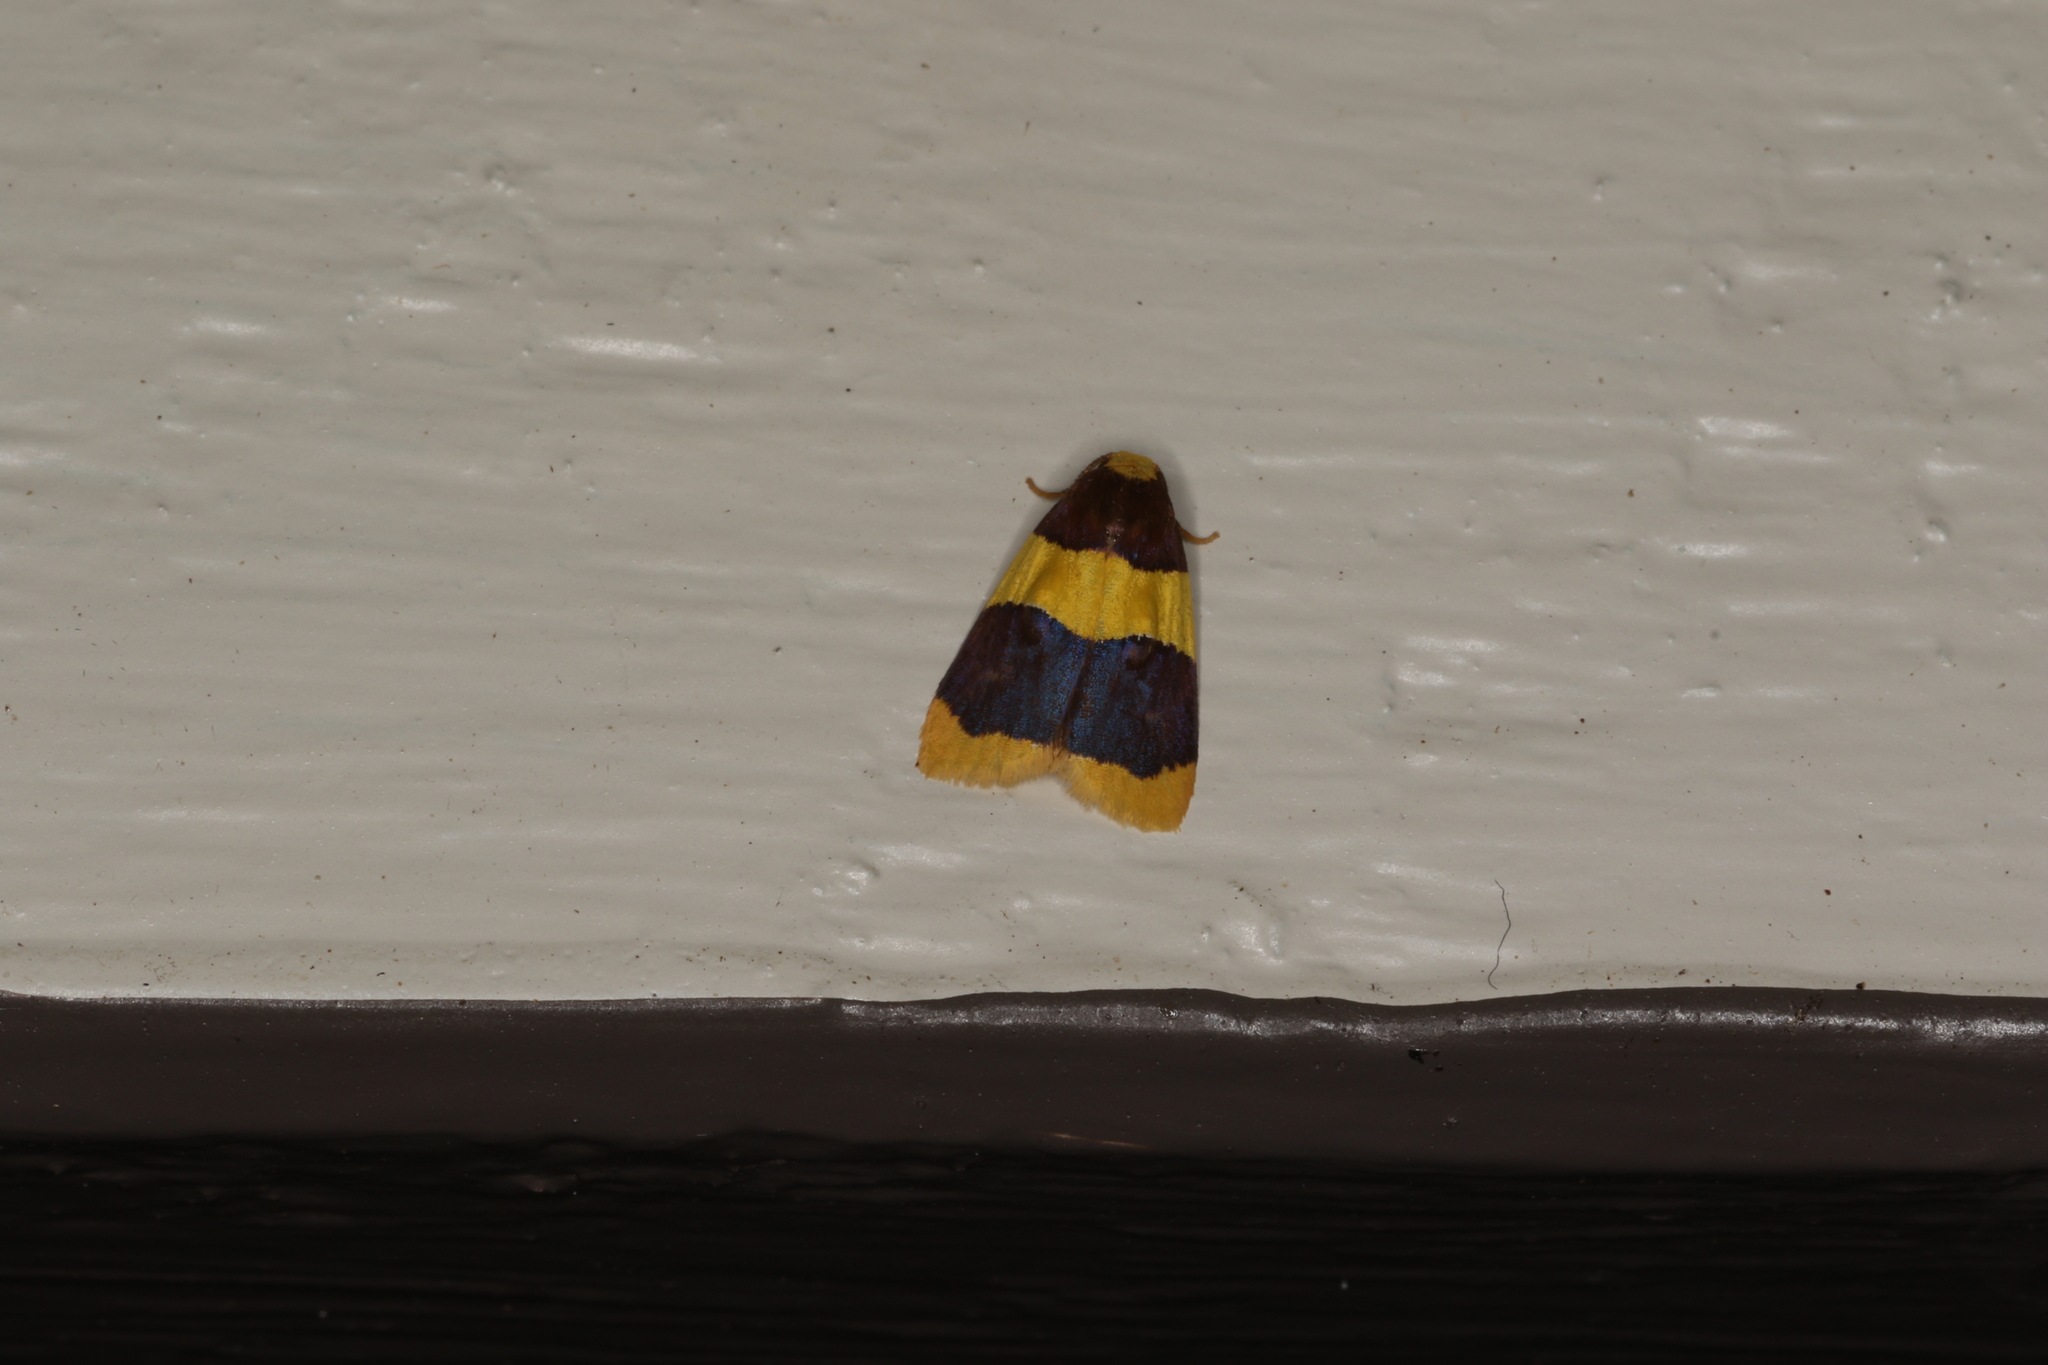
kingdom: Animalia
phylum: Arthropoda
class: Insecta
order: Lepidoptera
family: Erebidae
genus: Heterallactis
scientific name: Heterallactis phlogozona
